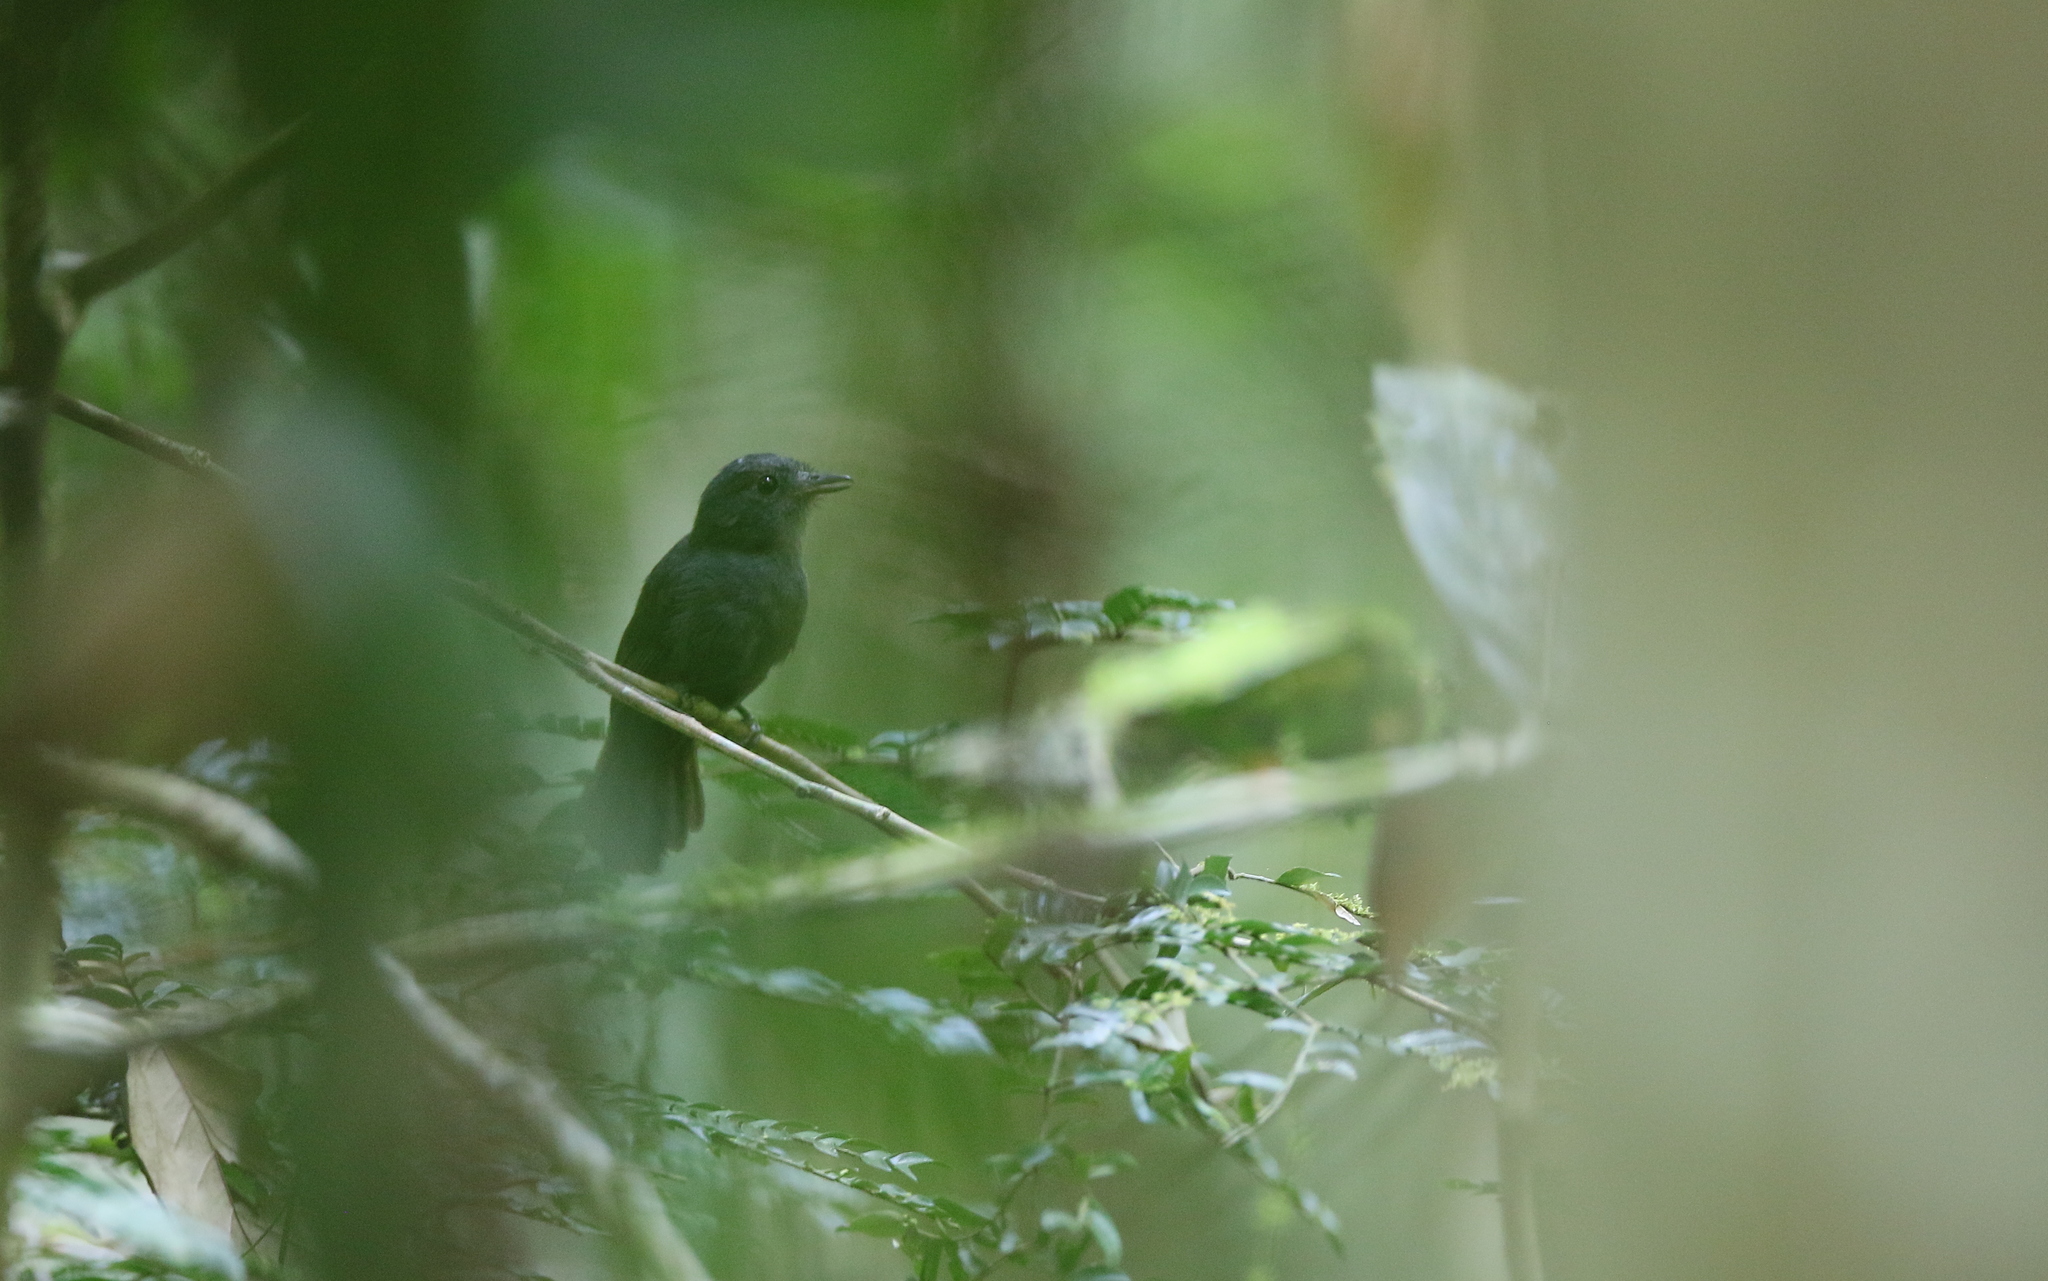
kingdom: Animalia
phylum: Chordata
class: Aves
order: Passeriformes
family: Thamnophilidae
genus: Thamnomanes
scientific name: Thamnomanes caesius
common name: Cinereous antshrike
